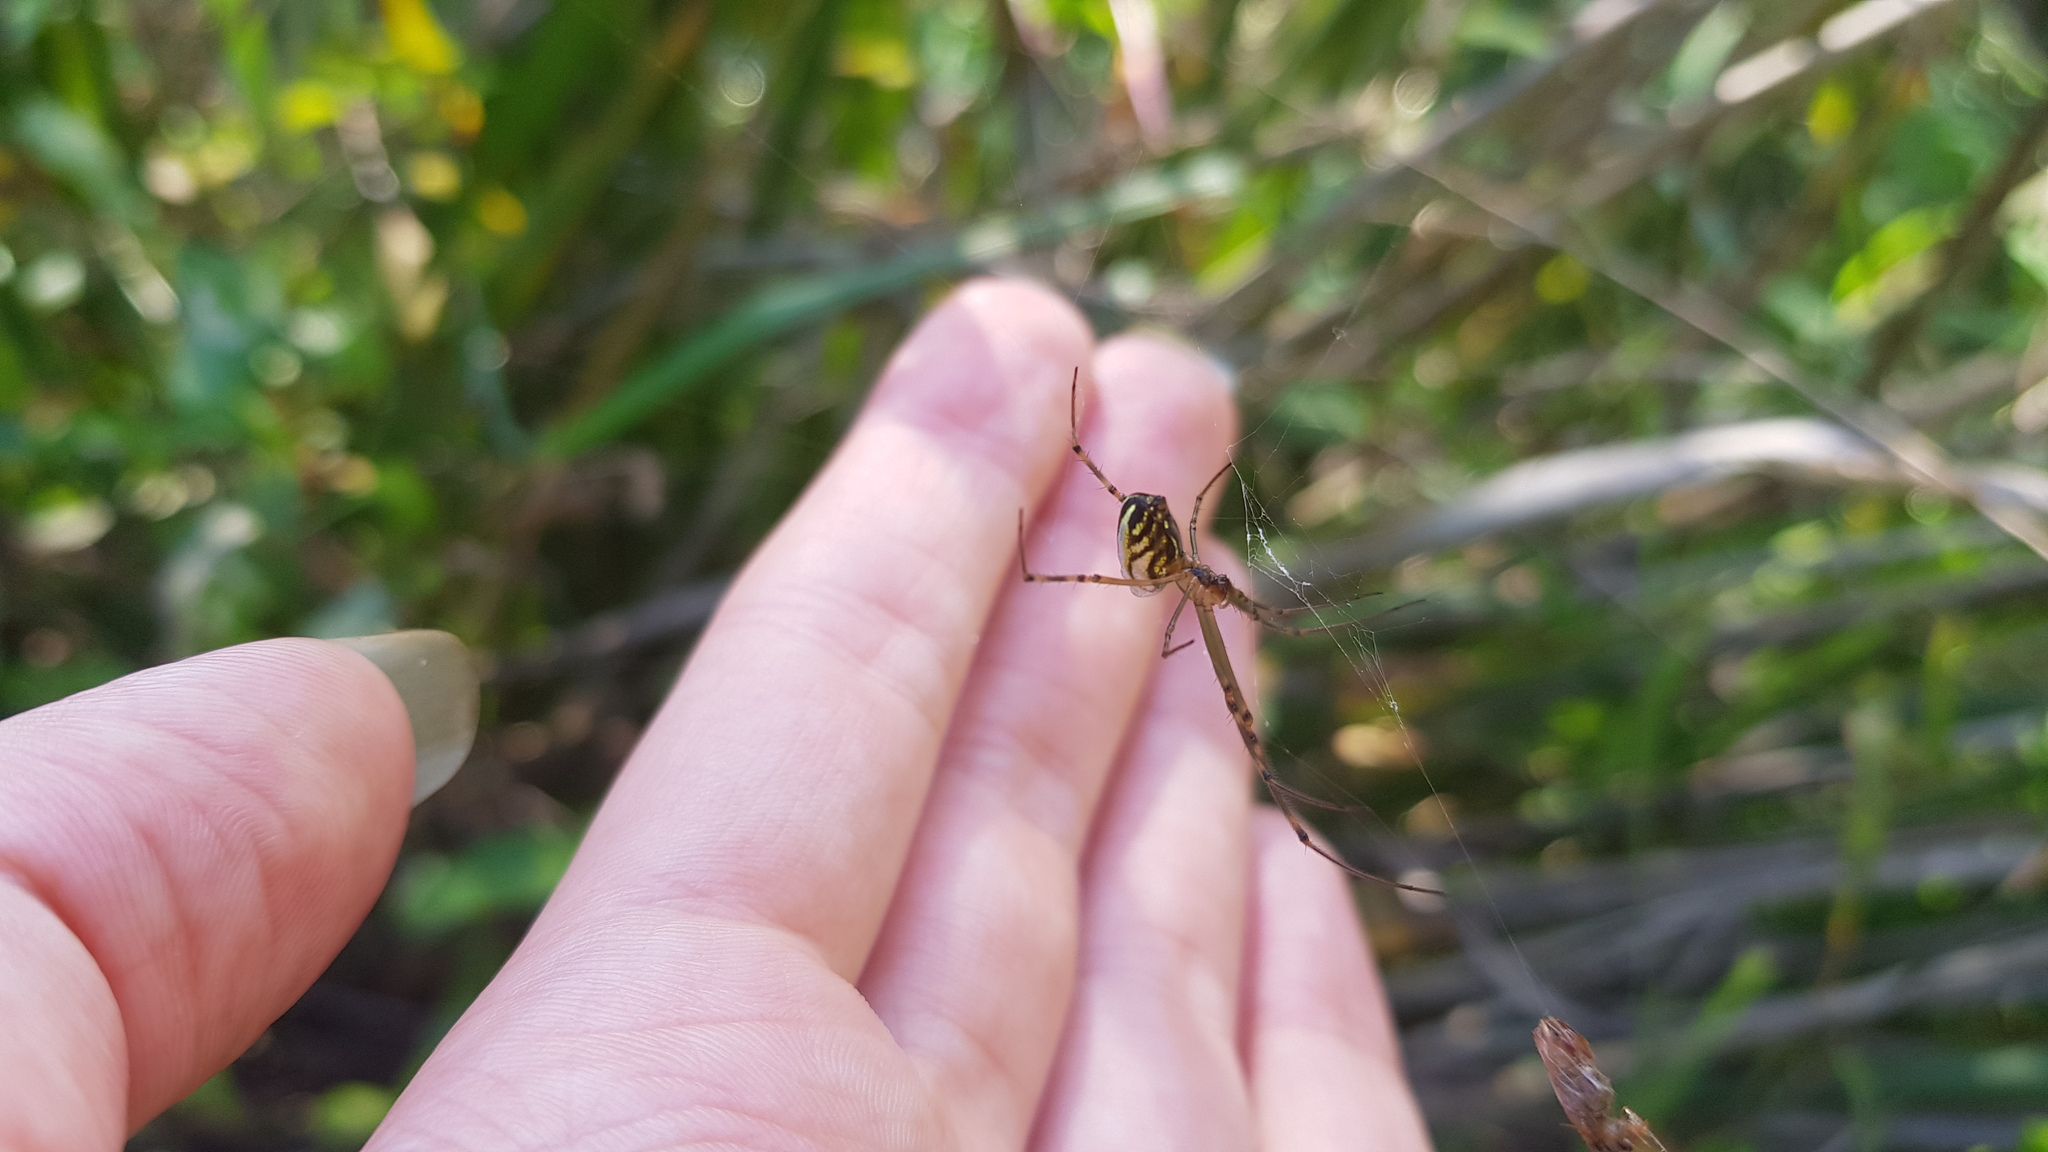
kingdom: Animalia
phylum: Arthropoda
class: Arachnida
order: Araneae
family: Tetragnathidae
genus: Leucauge
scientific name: Leucauge dromedaria
